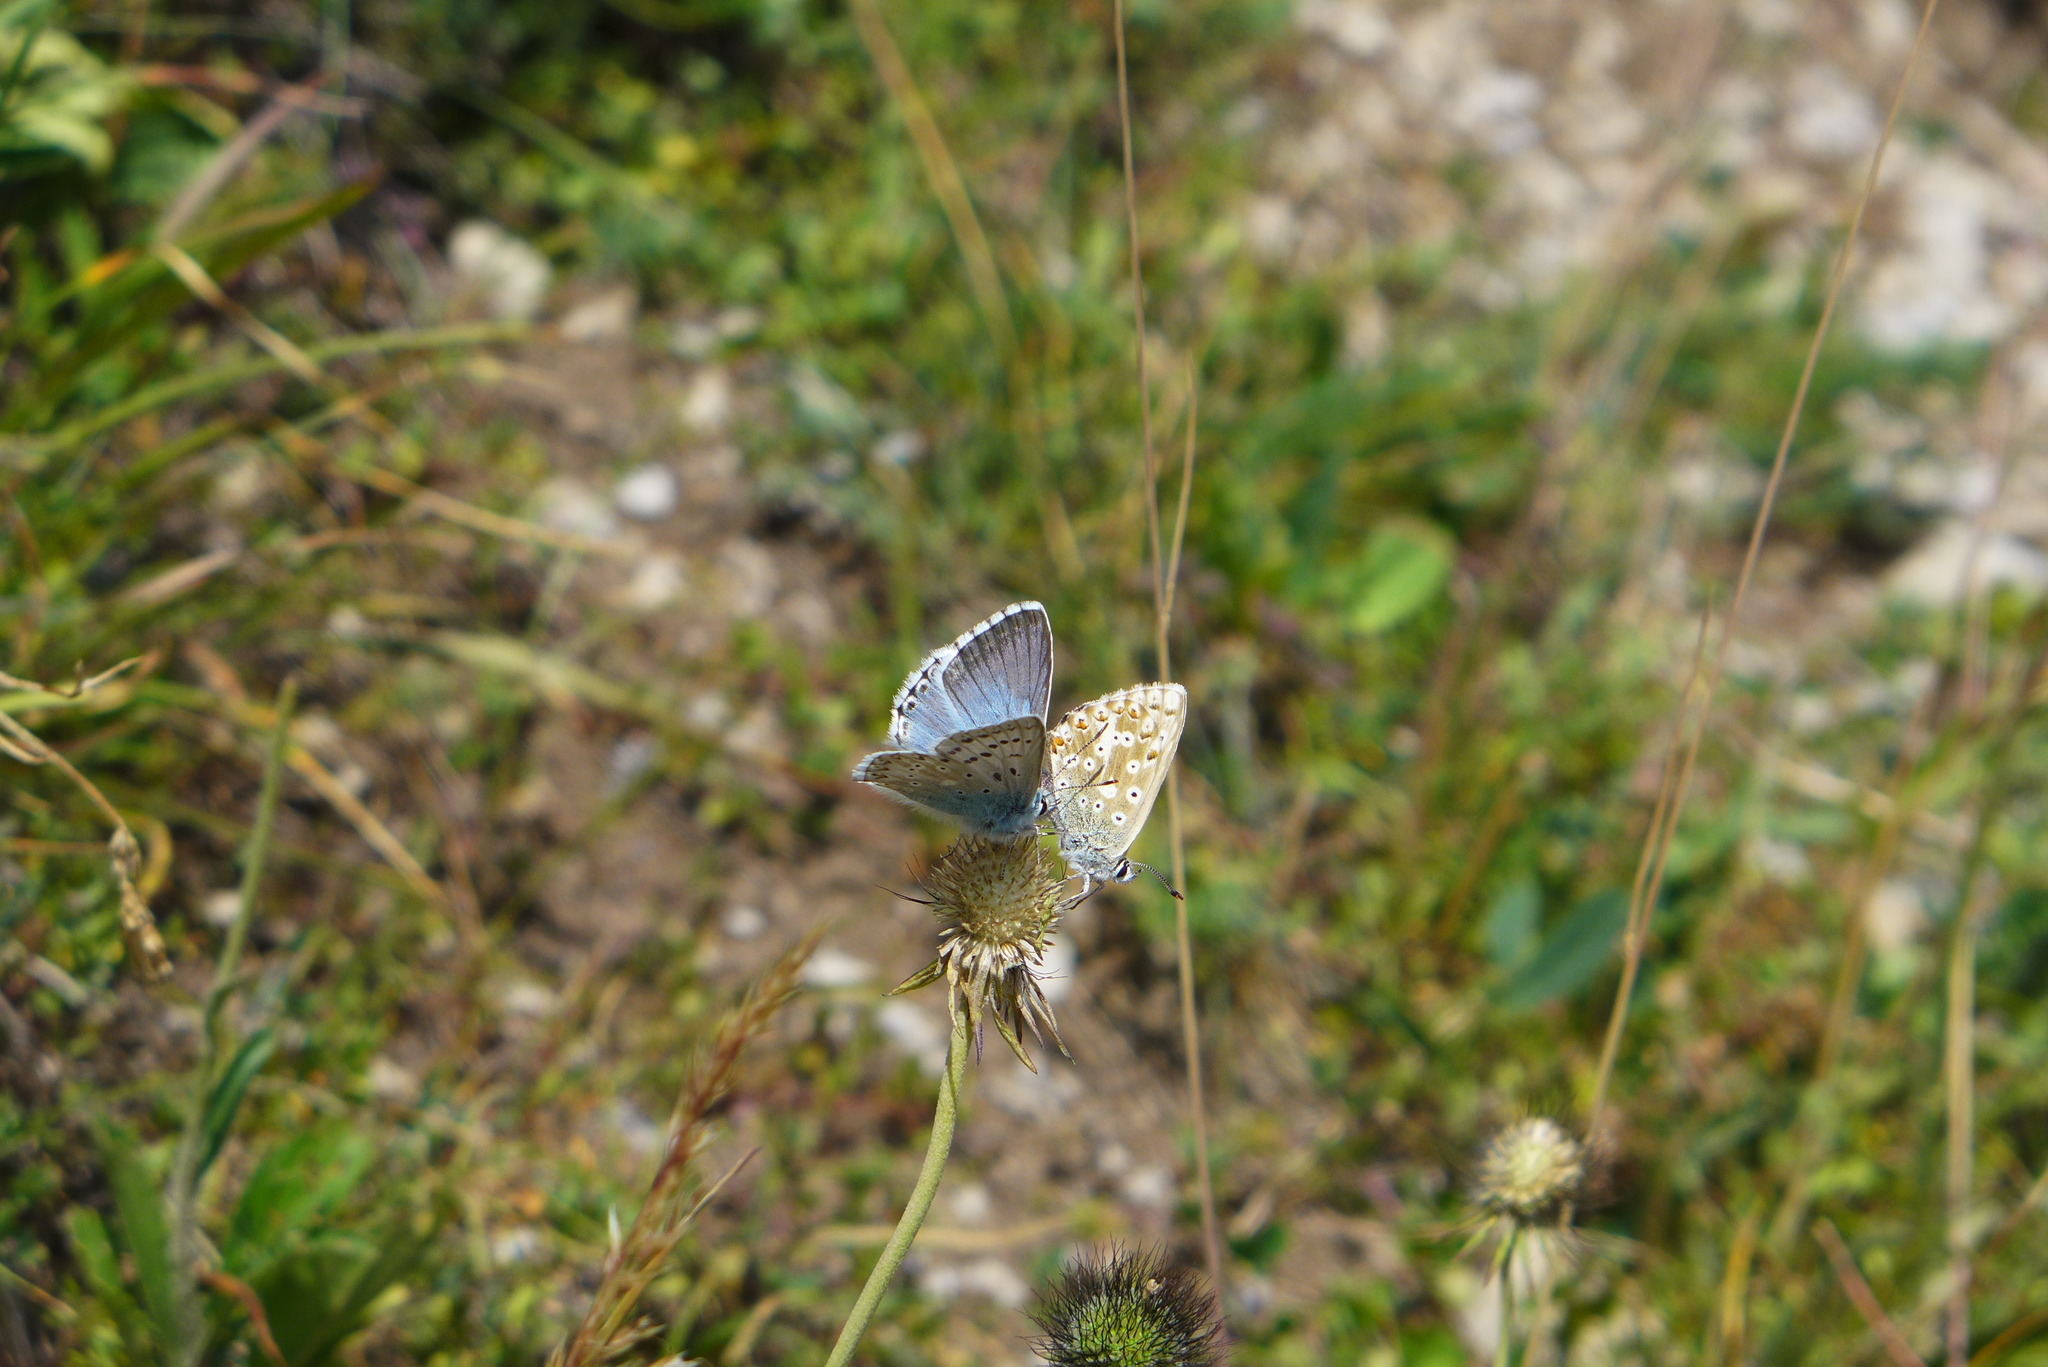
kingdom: Animalia
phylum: Arthropoda
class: Insecta
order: Lepidoptera
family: Lycaenidae
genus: Lysandra
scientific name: Lysandra coridon
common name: Chalkhill blue
